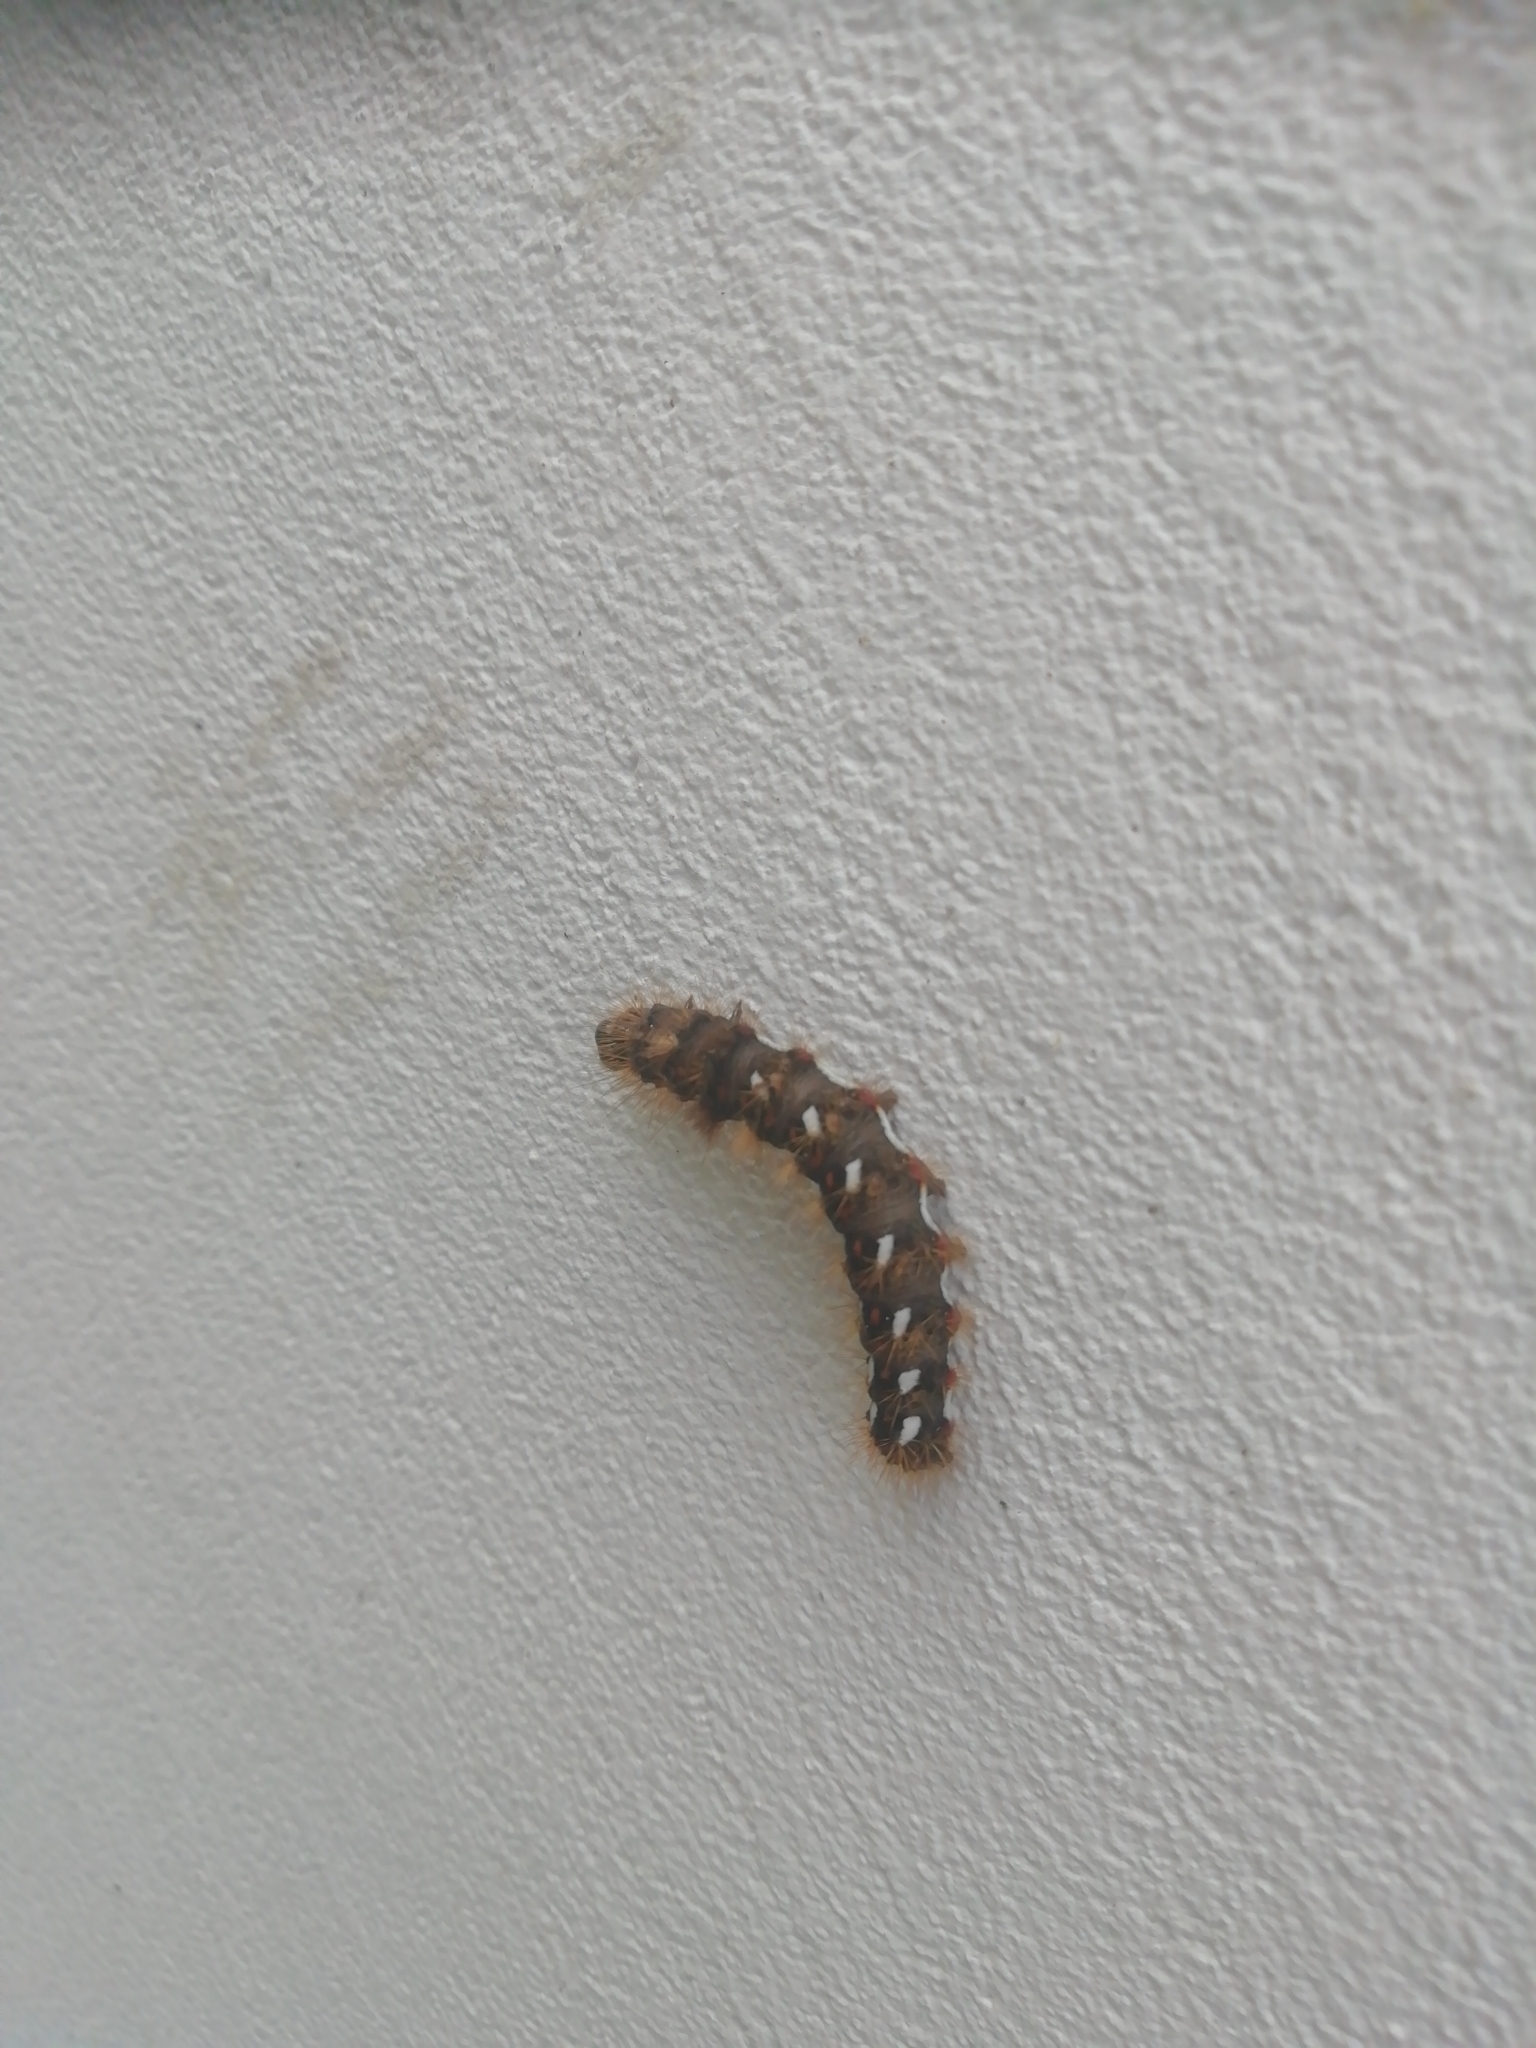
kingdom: Animalia
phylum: Arthropoda
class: Insecta
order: Lepidoptera
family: Noctuidae
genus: Acronicta
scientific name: Acronicta rumicis
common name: Knot grass
